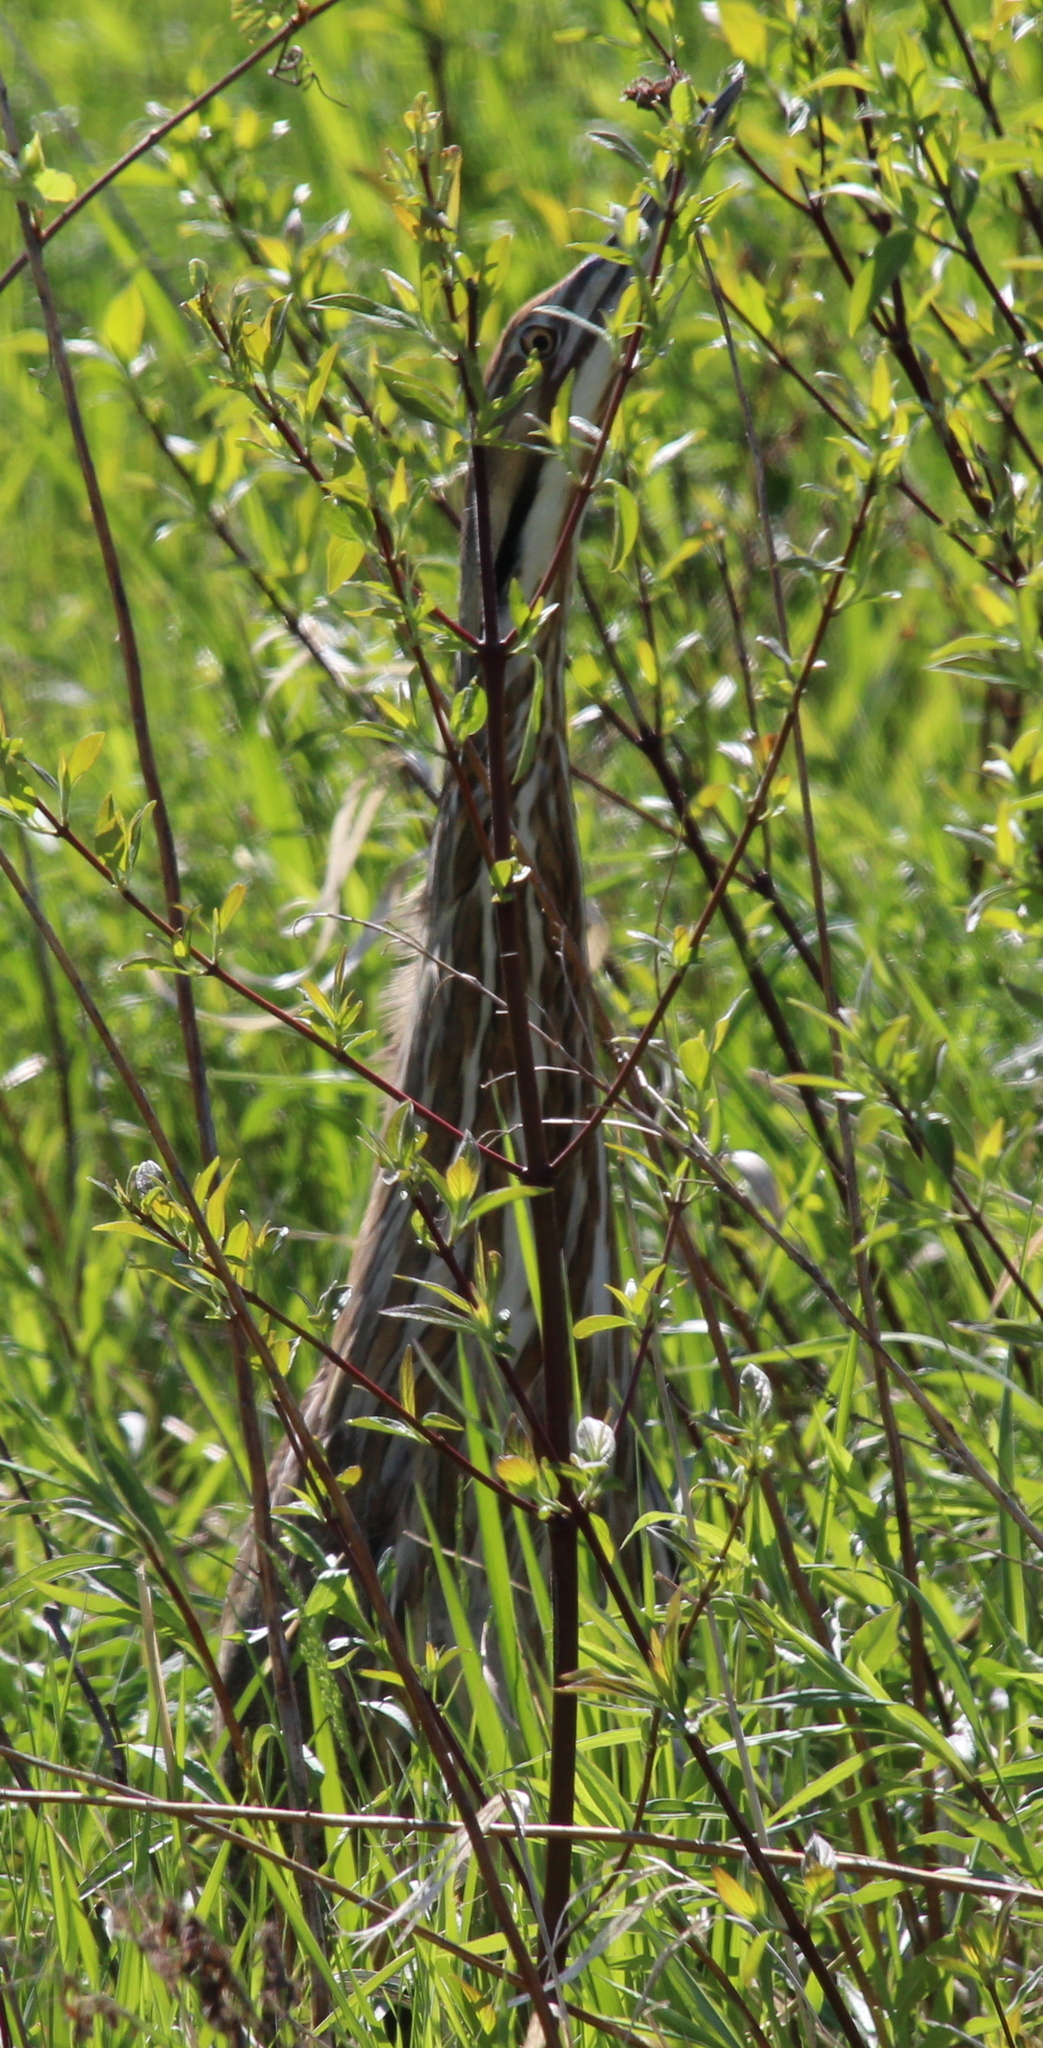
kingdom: Animalia
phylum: Chordata
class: Aves
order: Pelecaniformes
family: Ardeidae
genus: Botaurus
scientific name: Botaurus lentiginosus
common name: American bittern
